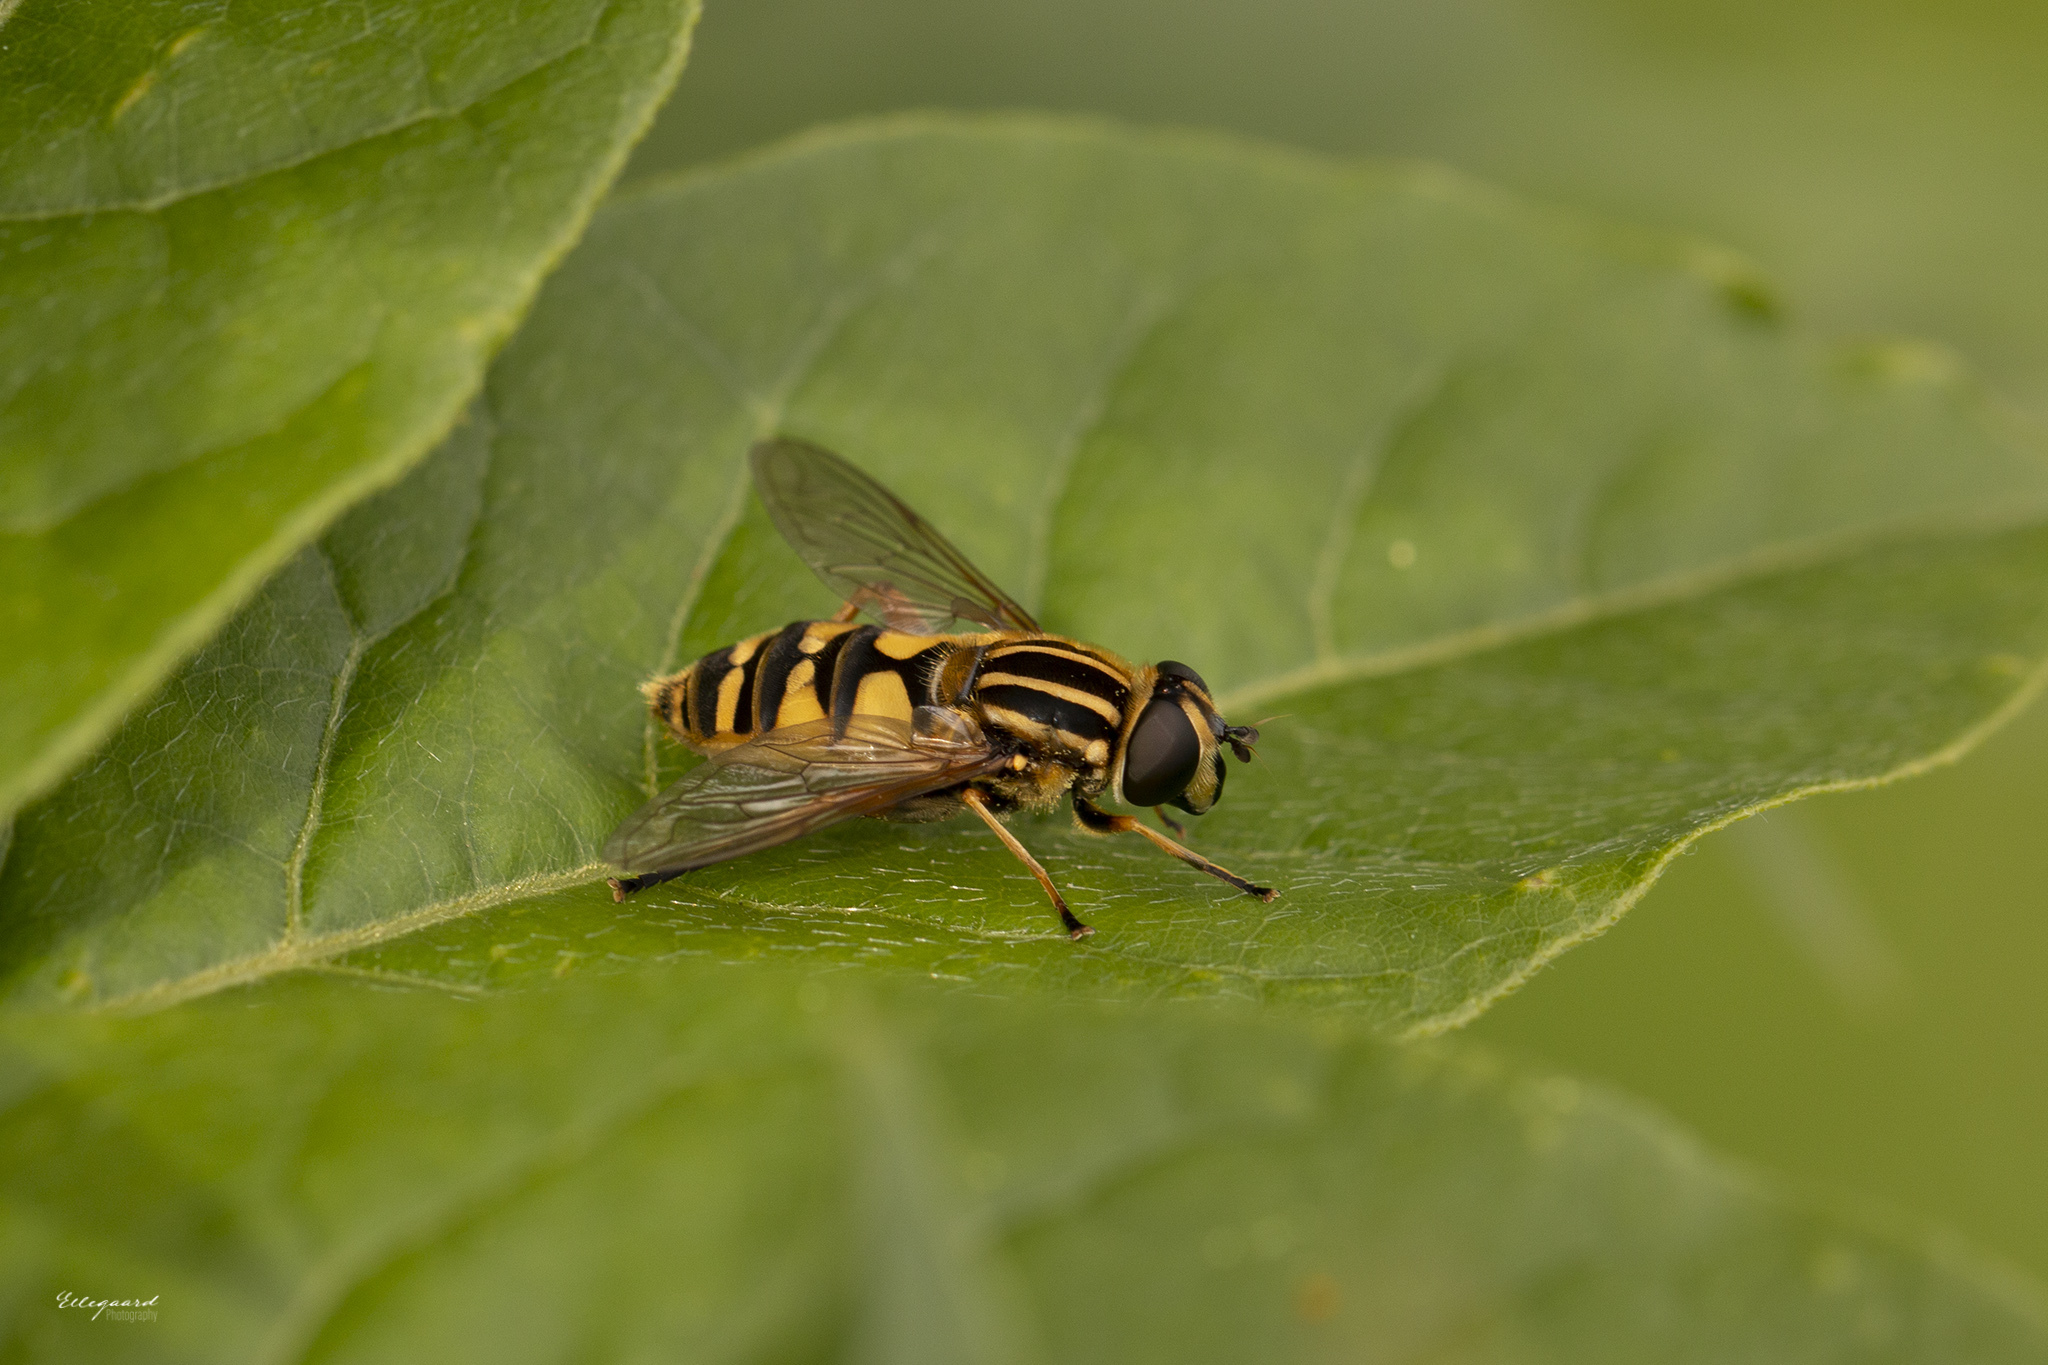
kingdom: Animalia
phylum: Arthropoda
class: Insecta
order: Diptera
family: Syrphidae
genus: Helophilus
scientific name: Helophilus pendulus
